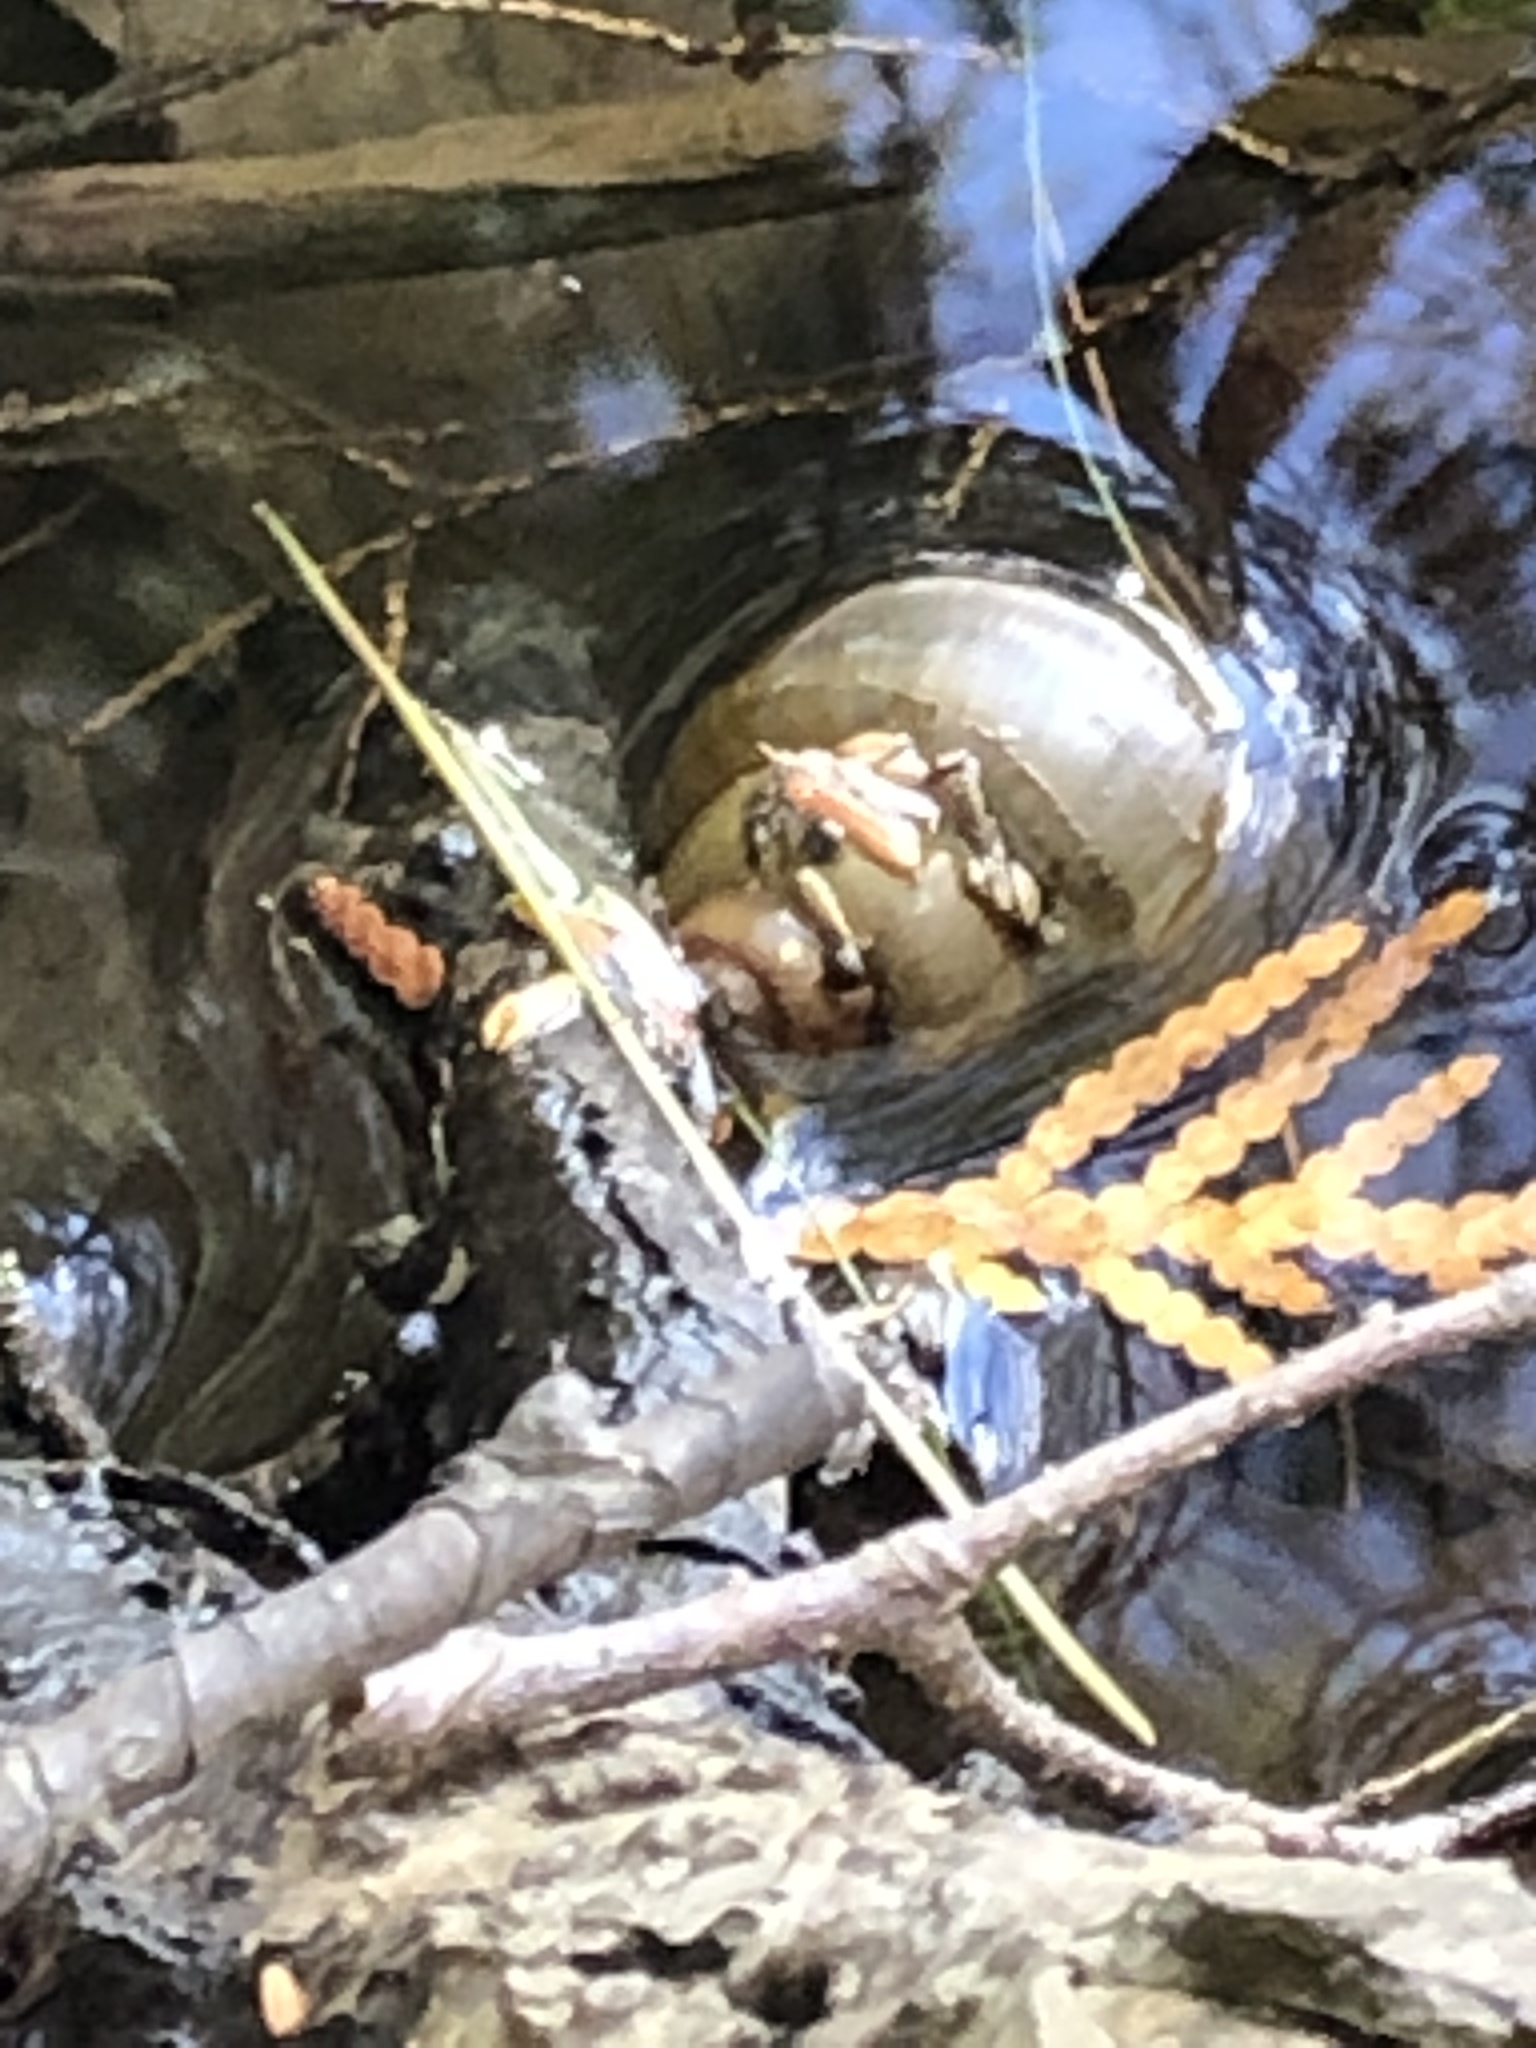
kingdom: Animalia
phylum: Mollusca
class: Gastropoda
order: Architaenioglossa
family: Viviparidae
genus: Cipangopaludina
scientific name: Cipangopaludina chinensis
